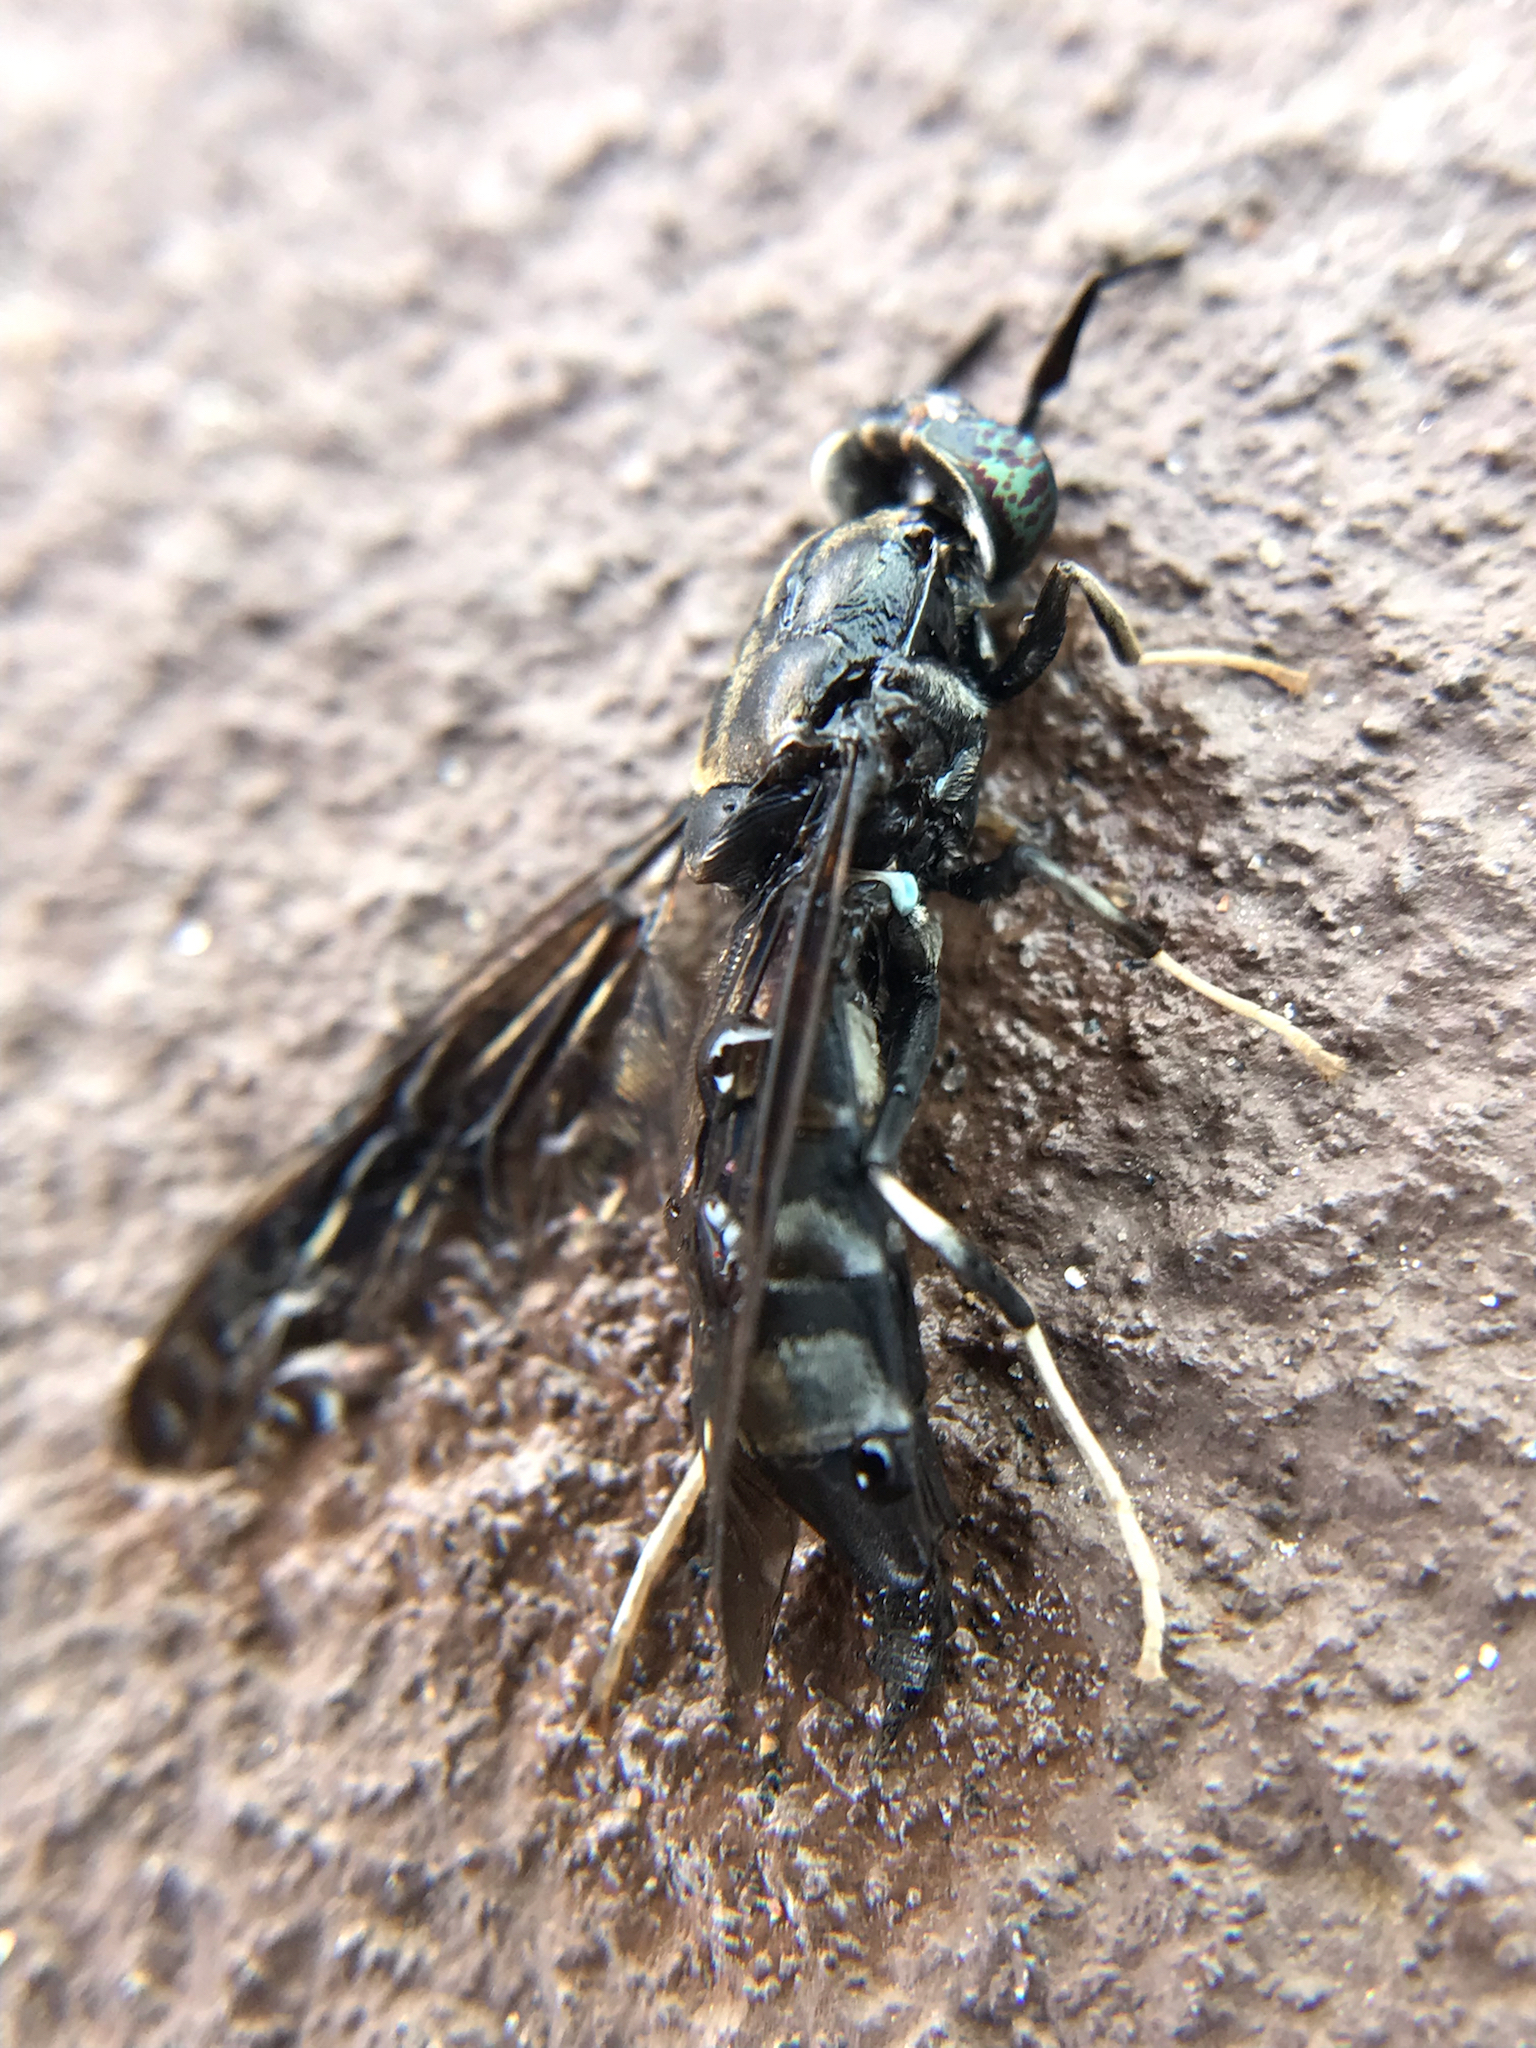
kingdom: Animalia
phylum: Arthropoda
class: Insecta
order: Diptera
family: Stratiomyidae
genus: Hermetia
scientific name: Hermetia illucens
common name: Black soldier fly
